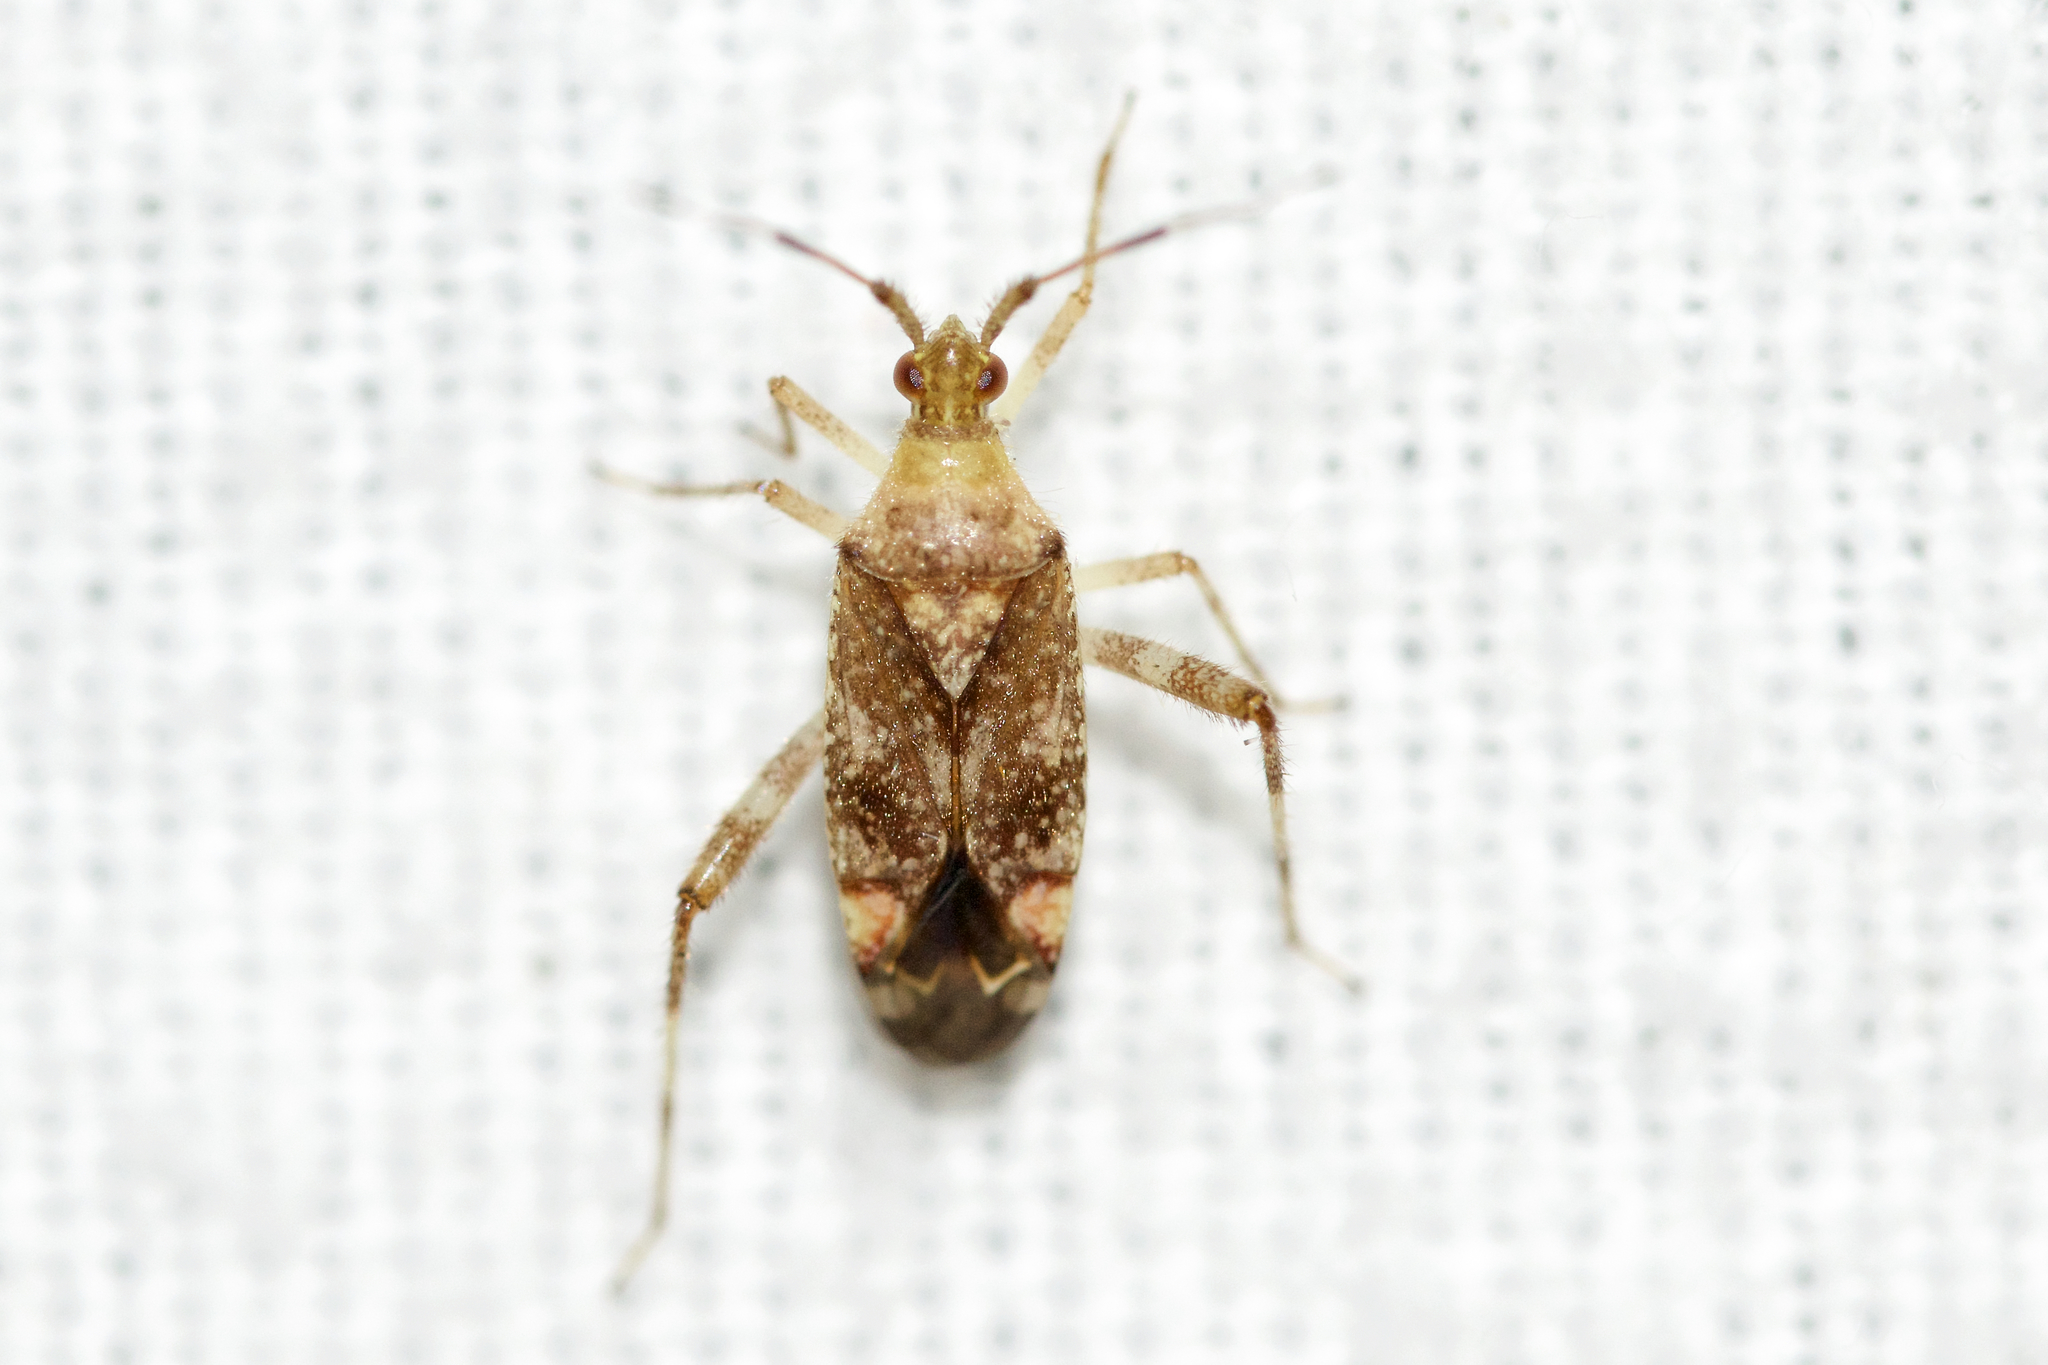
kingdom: Animalia
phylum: Arthropoda
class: Insecta
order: Hemiptera
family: Miridae
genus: Neurocolpus
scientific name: Neurocolpus nubilus
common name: Clouded plant bug
